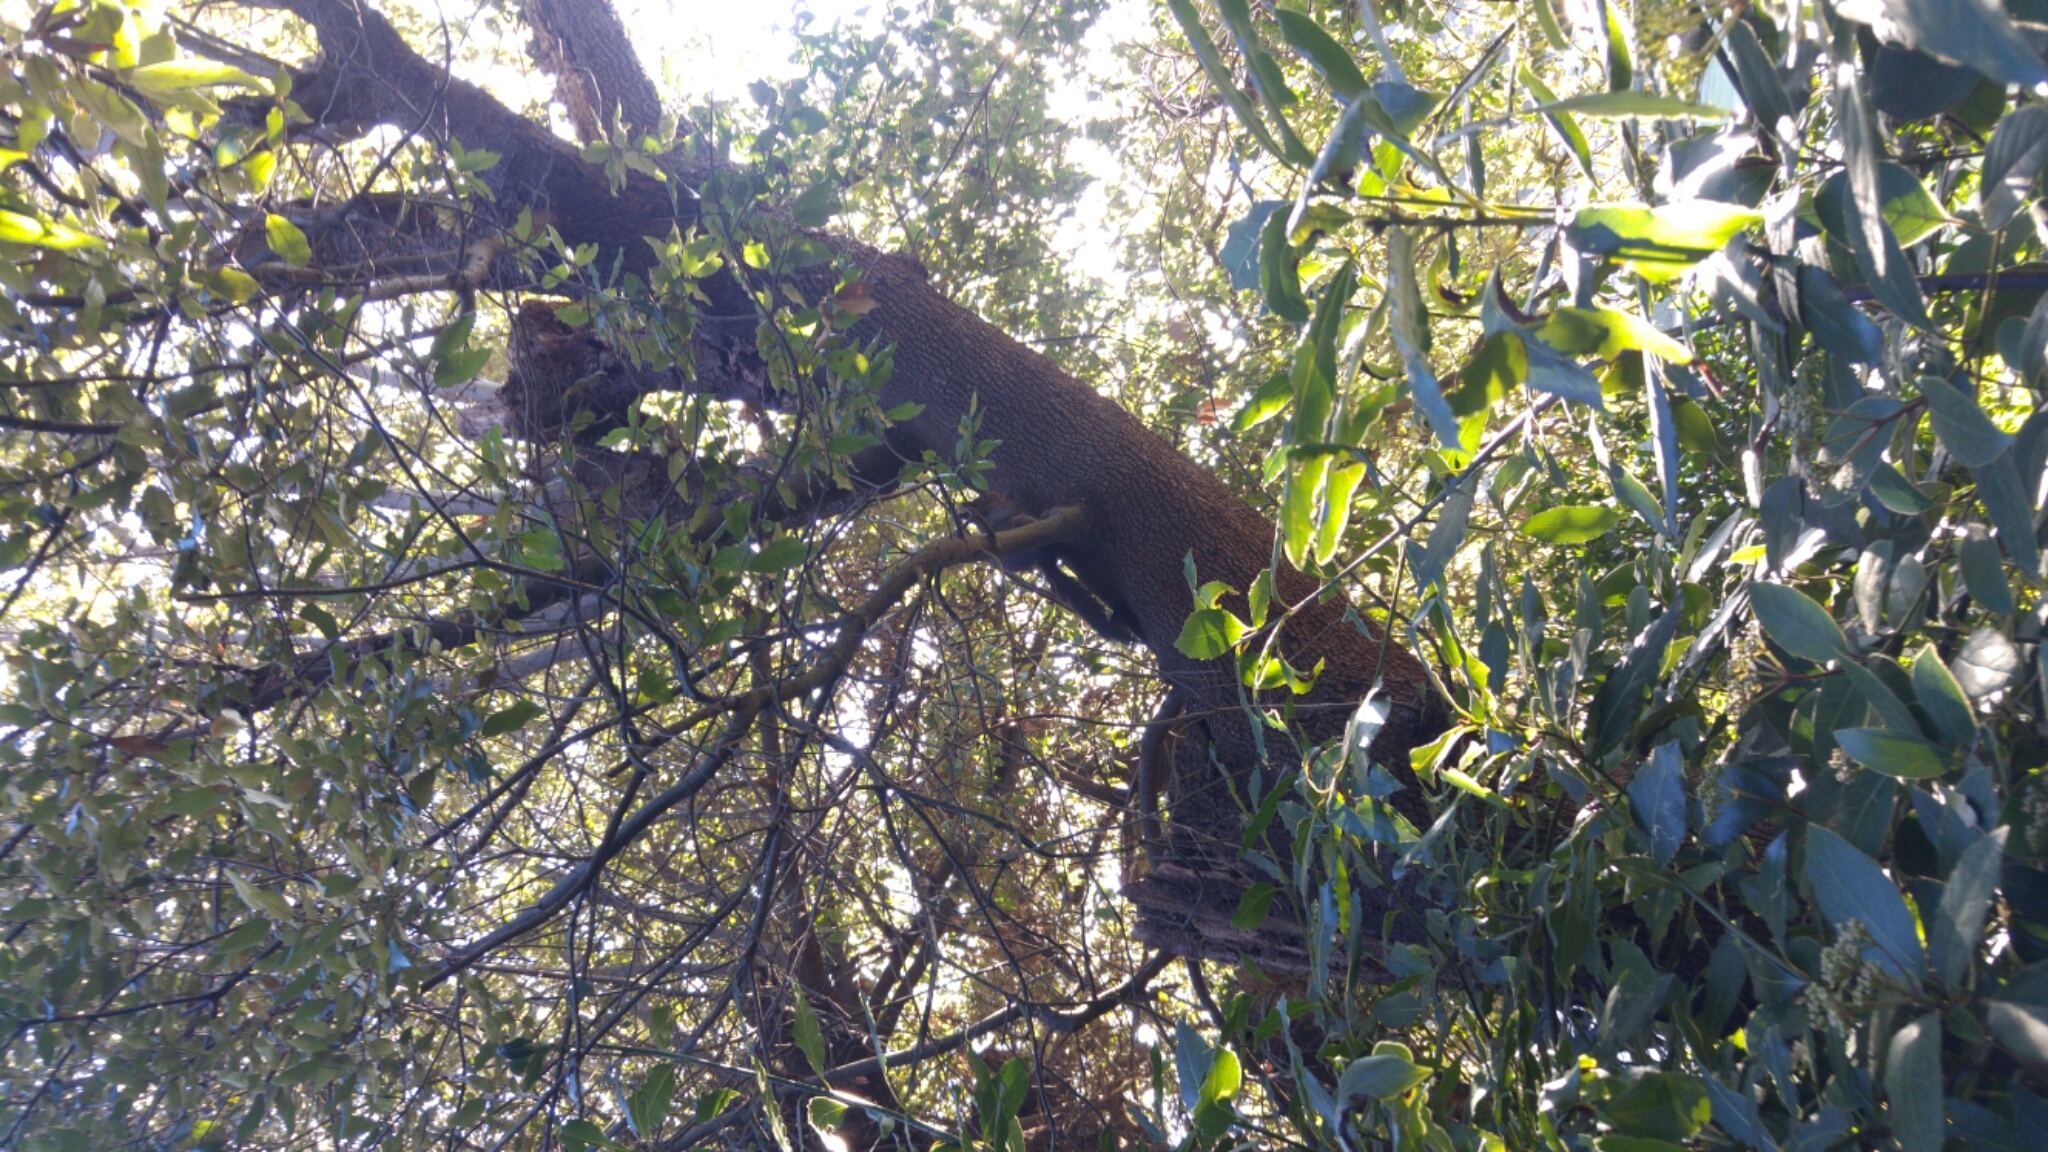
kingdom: Animalia
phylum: Chordata
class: Mammalia
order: Rodentia
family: Sciuridae
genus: Sciurus
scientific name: Sciurus vulgaris
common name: Eurasian red squirrel
